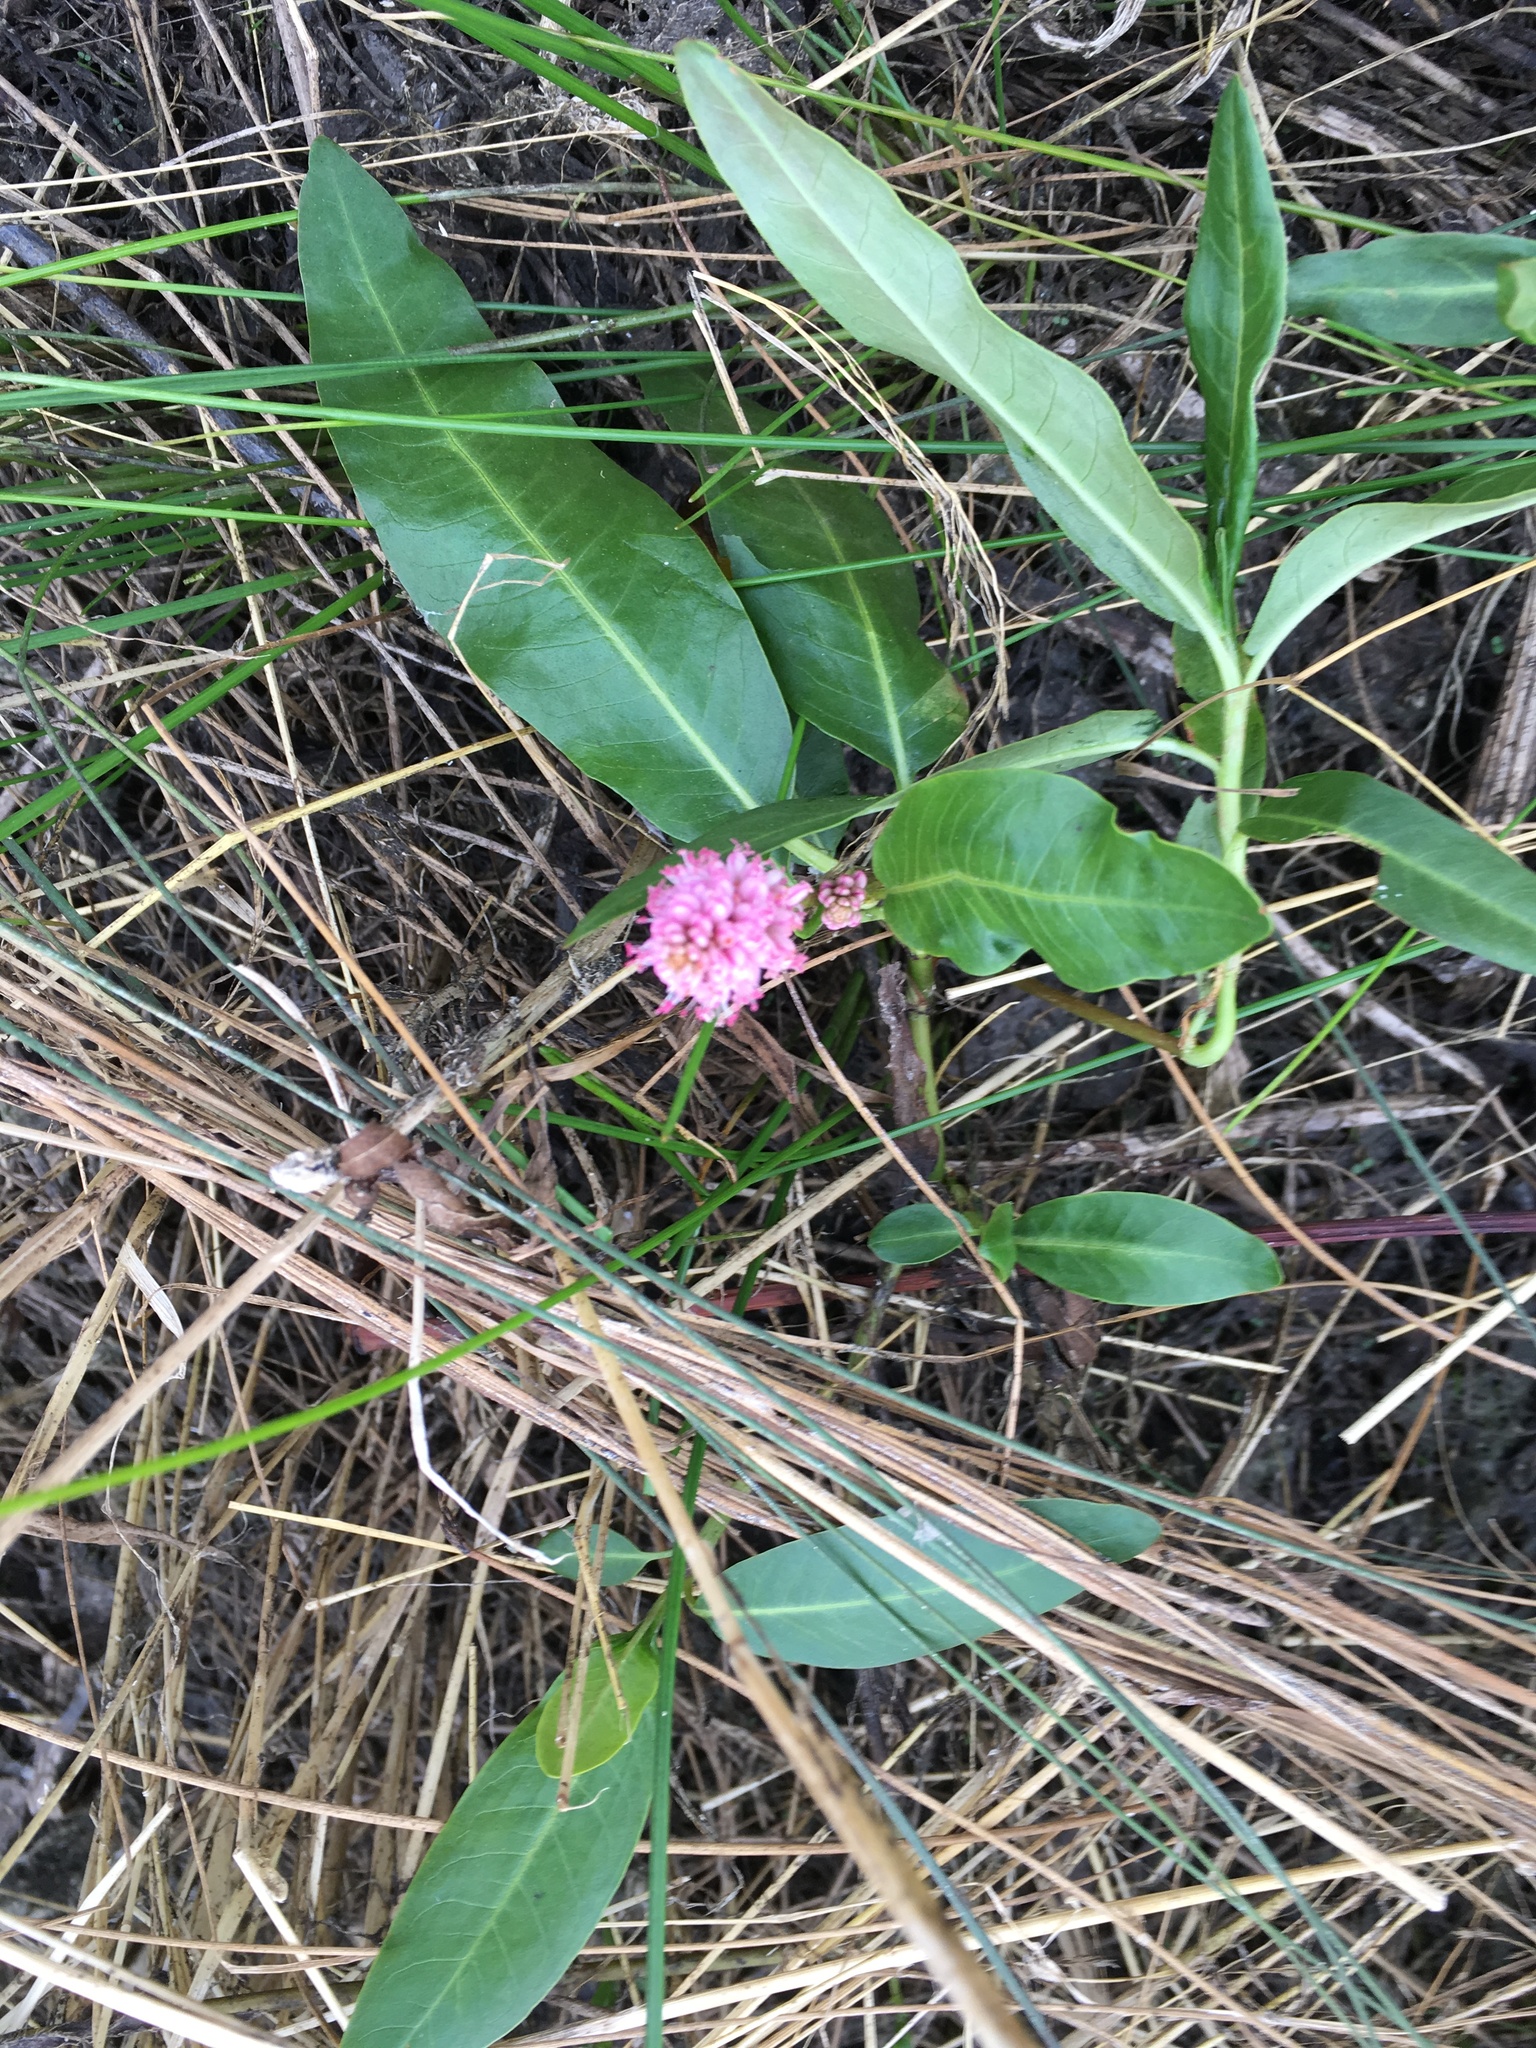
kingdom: Plantae
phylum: Tracheophyta
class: Magnoliopsida
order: Caryophyllales
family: Polygonaceae
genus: Persicaria
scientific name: Persicaria amphibia
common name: Amphibious bistort
